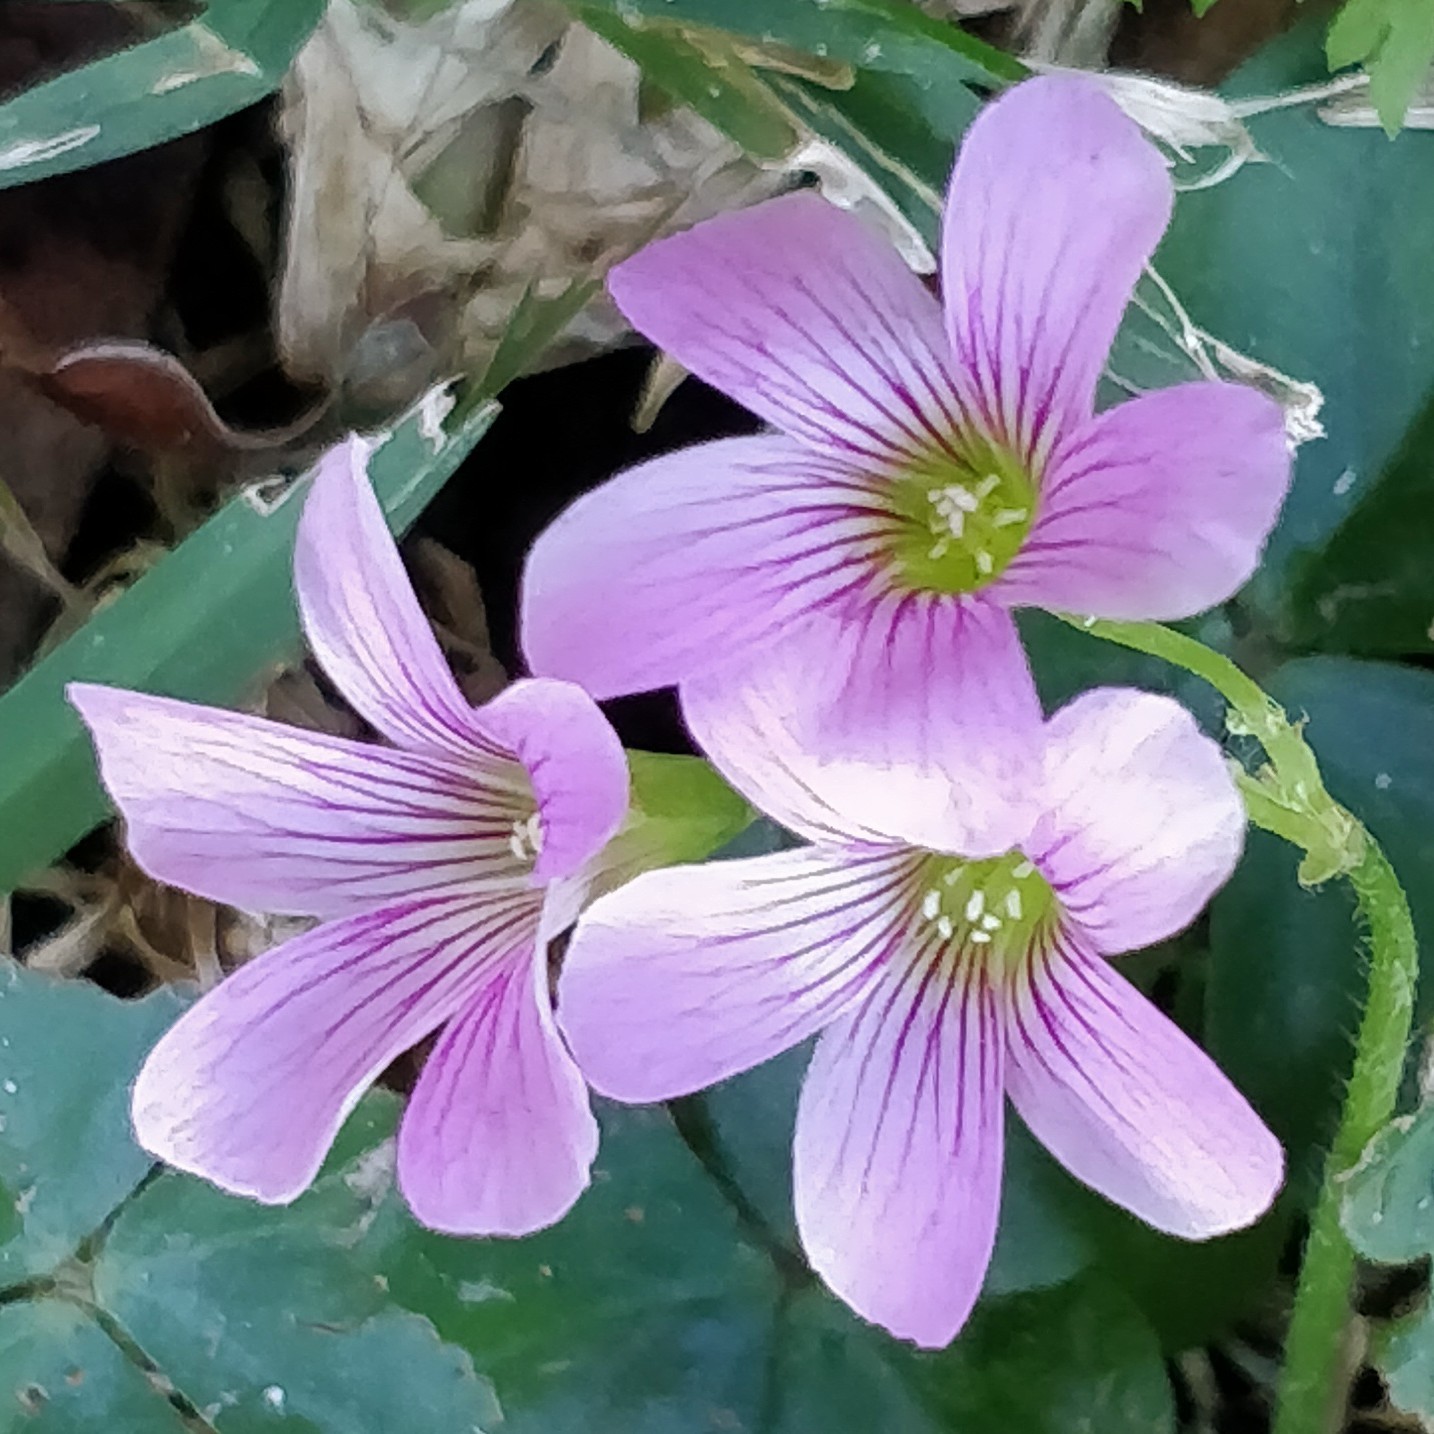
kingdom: Plantae
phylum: Tracheophyta
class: Magnoliopsida
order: Oxalidales
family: Oxalidaceae
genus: Oxalis
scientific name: Oxalis debilis
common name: Large-flowered pink-sorrel
